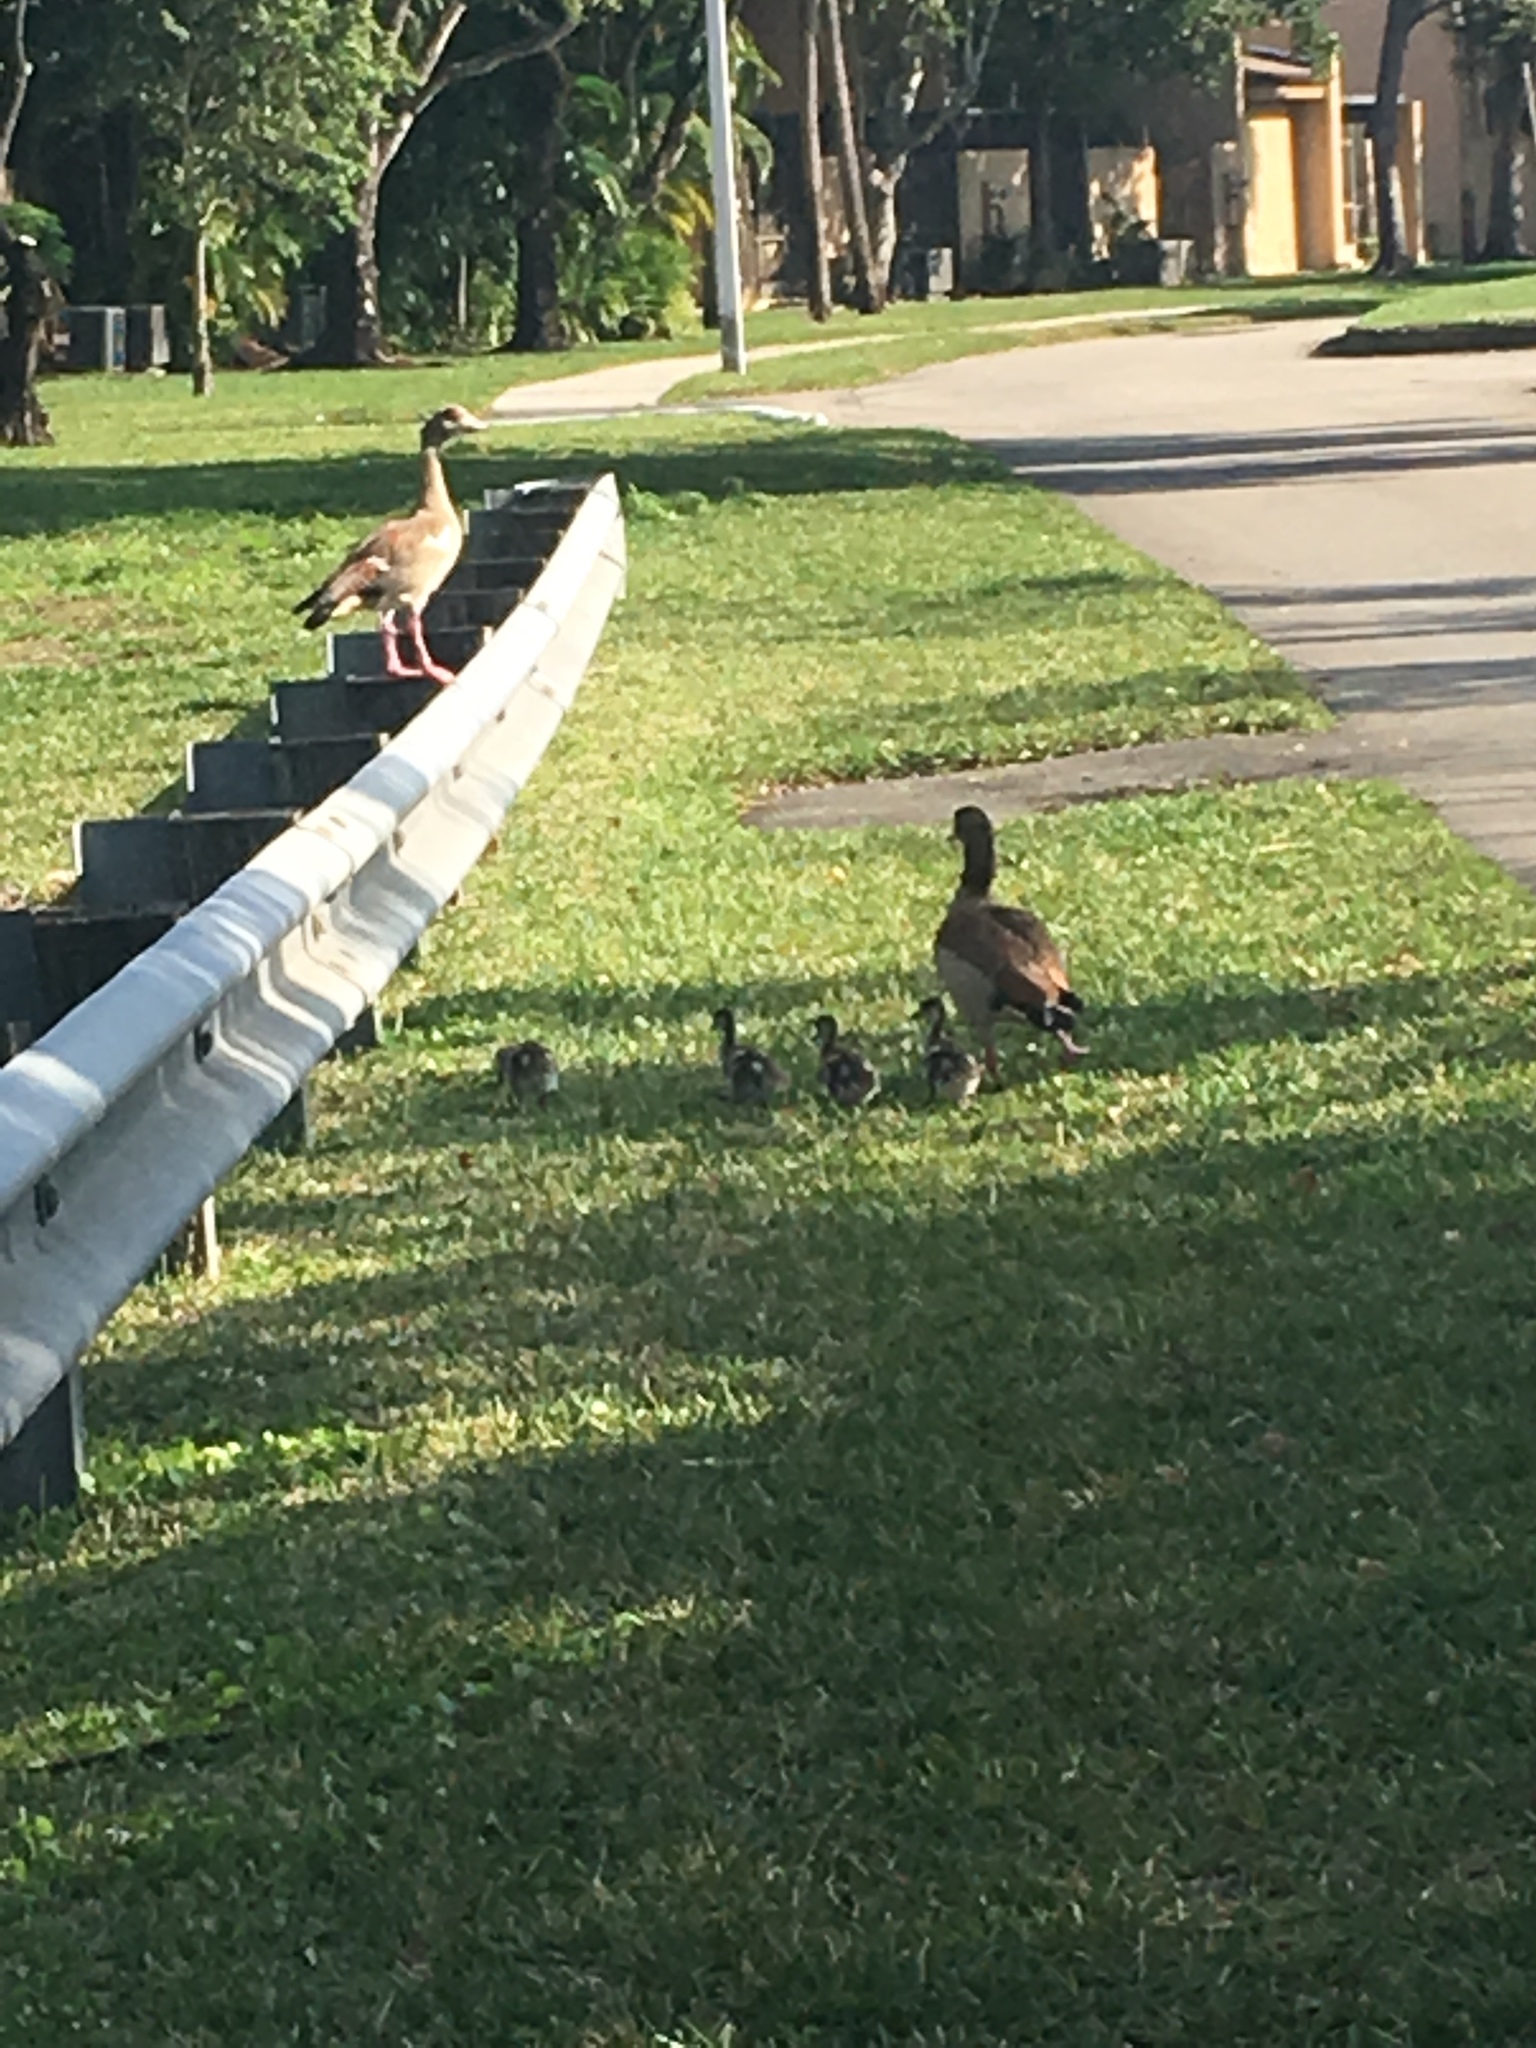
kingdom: Animalia
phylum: Chordata
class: Aves
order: Anseriformes
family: Anatidae
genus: Alopochen
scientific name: Alopochen aegyptiaca
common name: Egyptian goose
